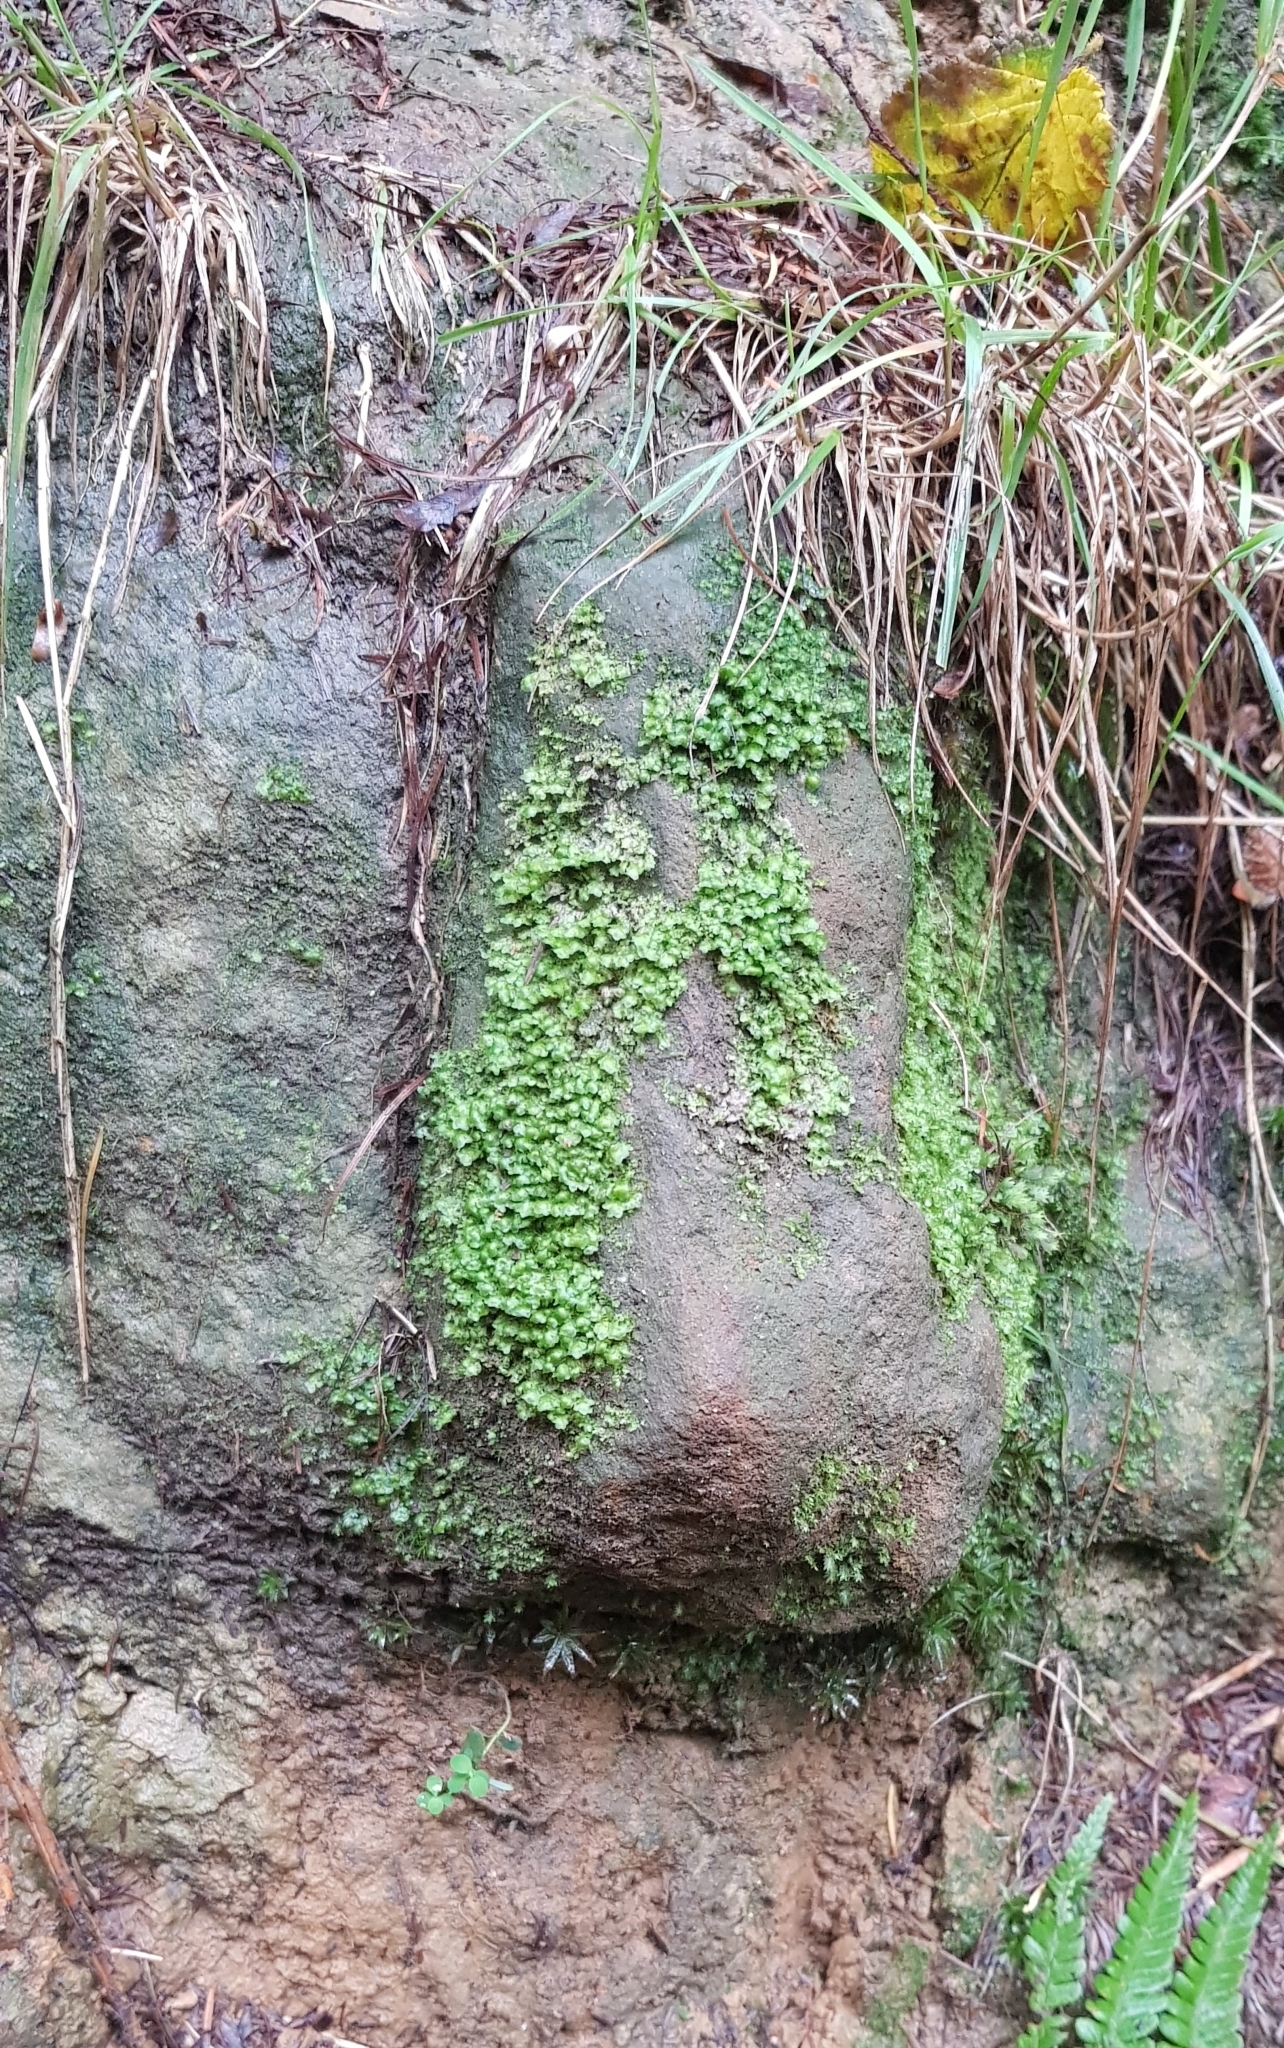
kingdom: Plantae
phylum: Marchantiophyta
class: Jungermanniopsida
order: Jungermanniales
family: Scapaniaceae
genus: Scapania
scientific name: Scapania nemorea
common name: Grove earwort
